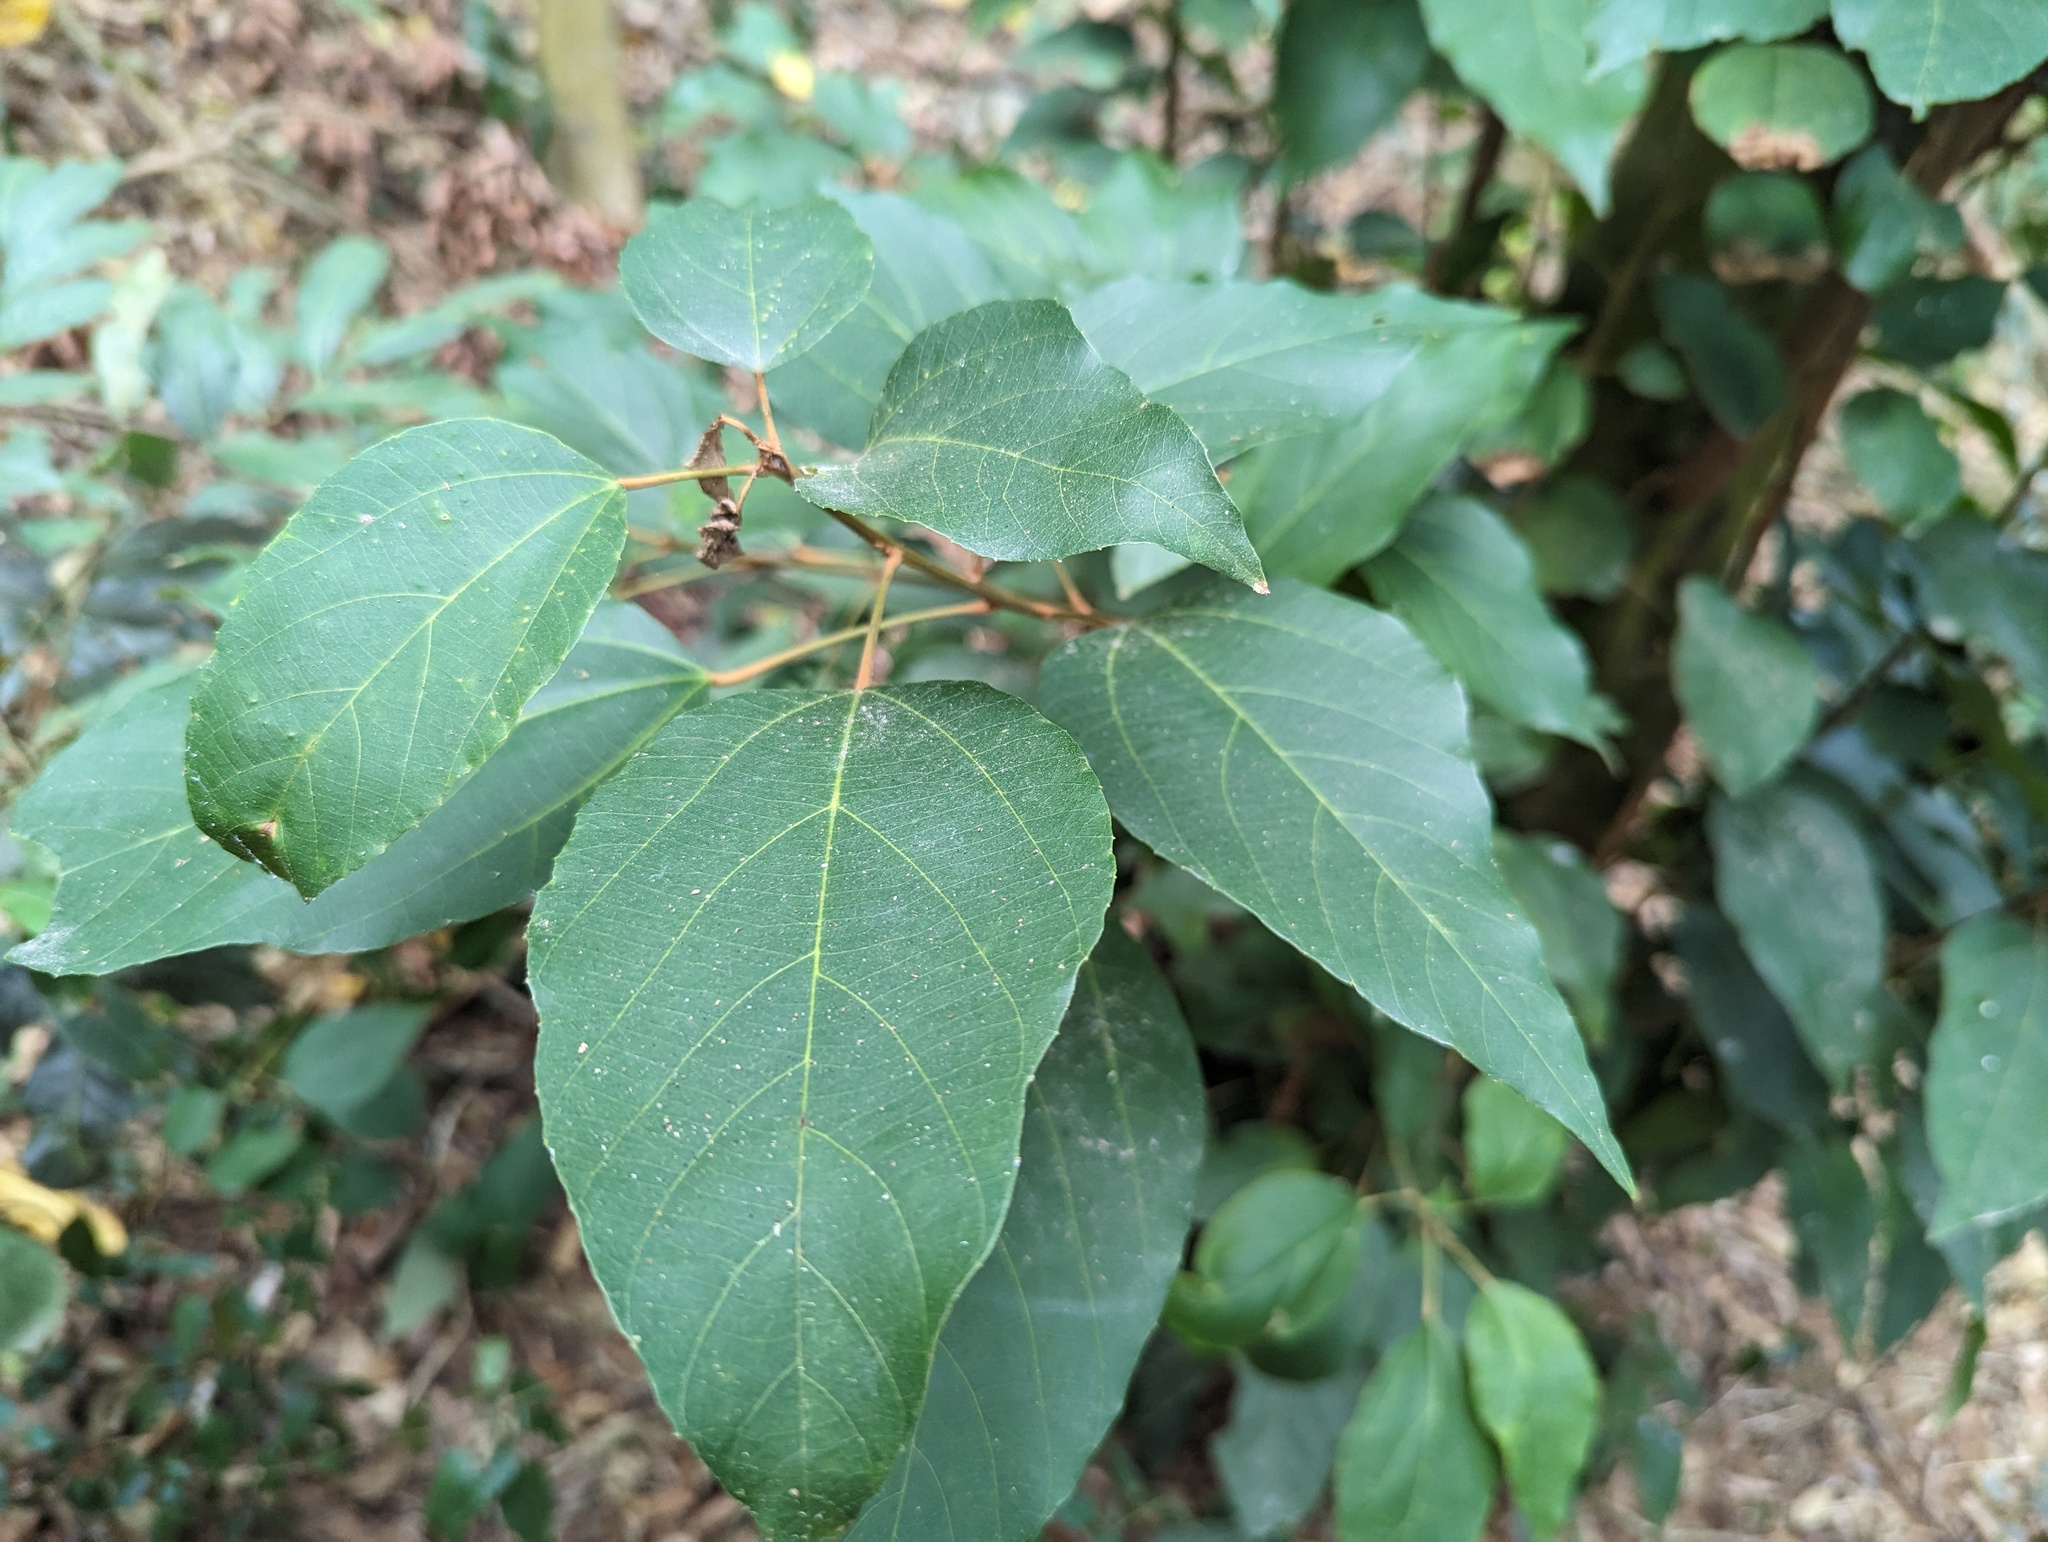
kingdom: Plantae
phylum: Tracheophyta
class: Magnoliopsida
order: Malpighiales
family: Euphorbiaceae
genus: Mallotus
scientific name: Mallotus philippensis
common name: Kamala tree
